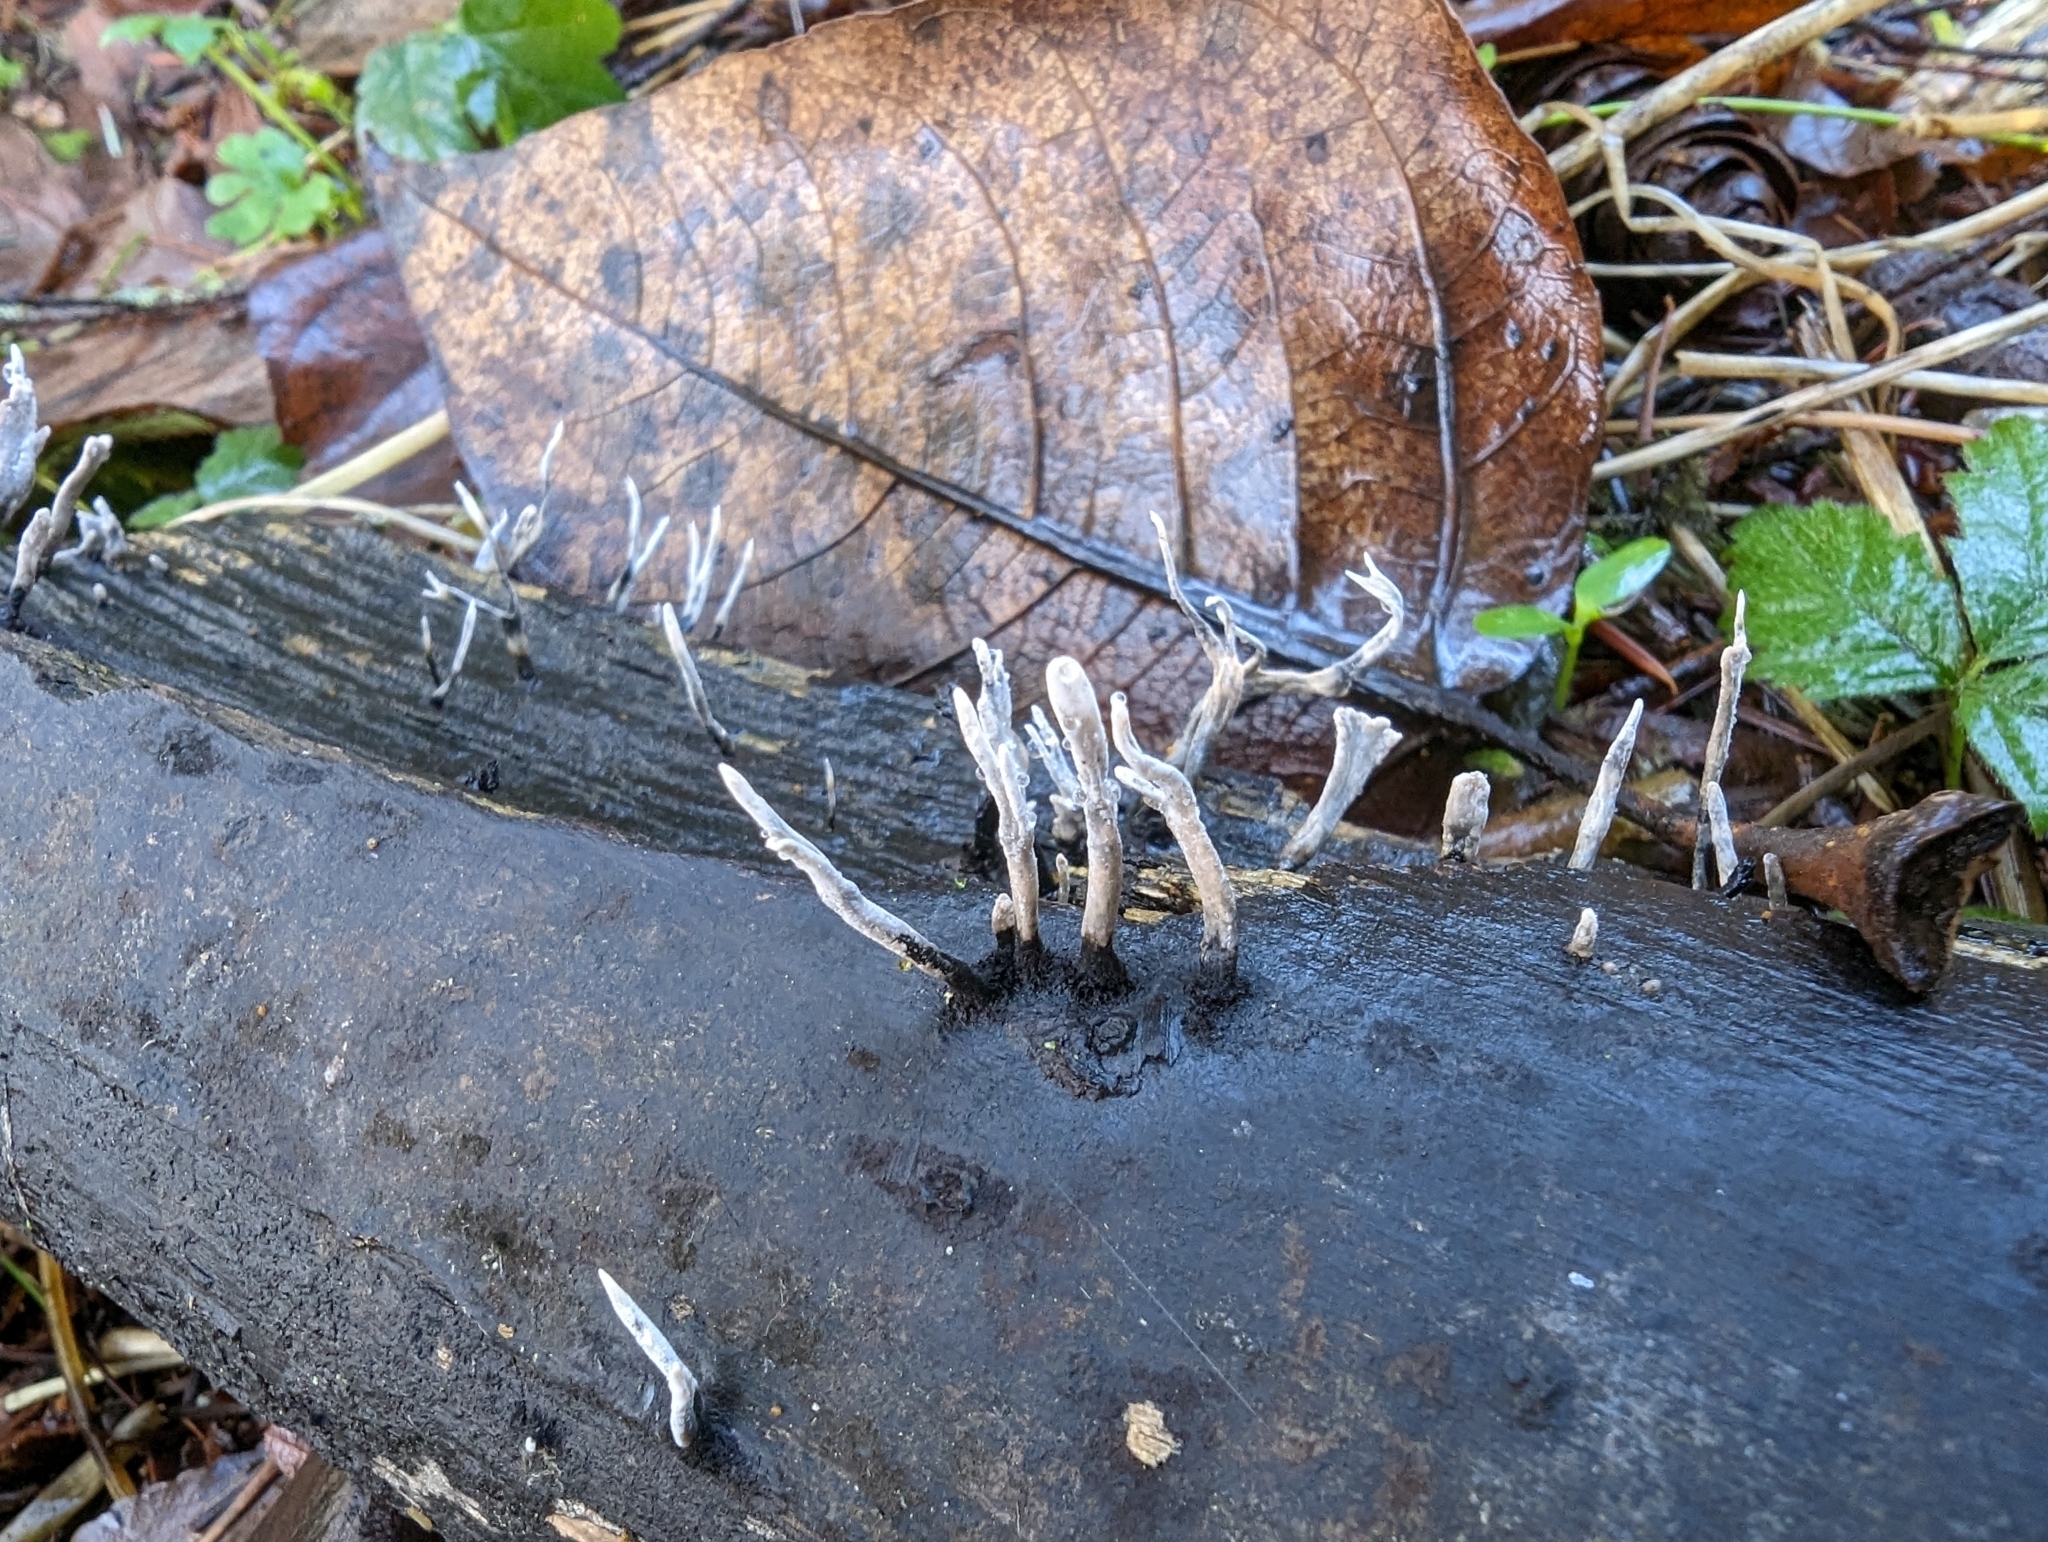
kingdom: Fungi
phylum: Ascomycota
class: Sordariomycetes
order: Xylariales
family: Xylariaceae
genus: Xylaria
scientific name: Xylaria hypoxylon
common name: Candle-snuff fungus
